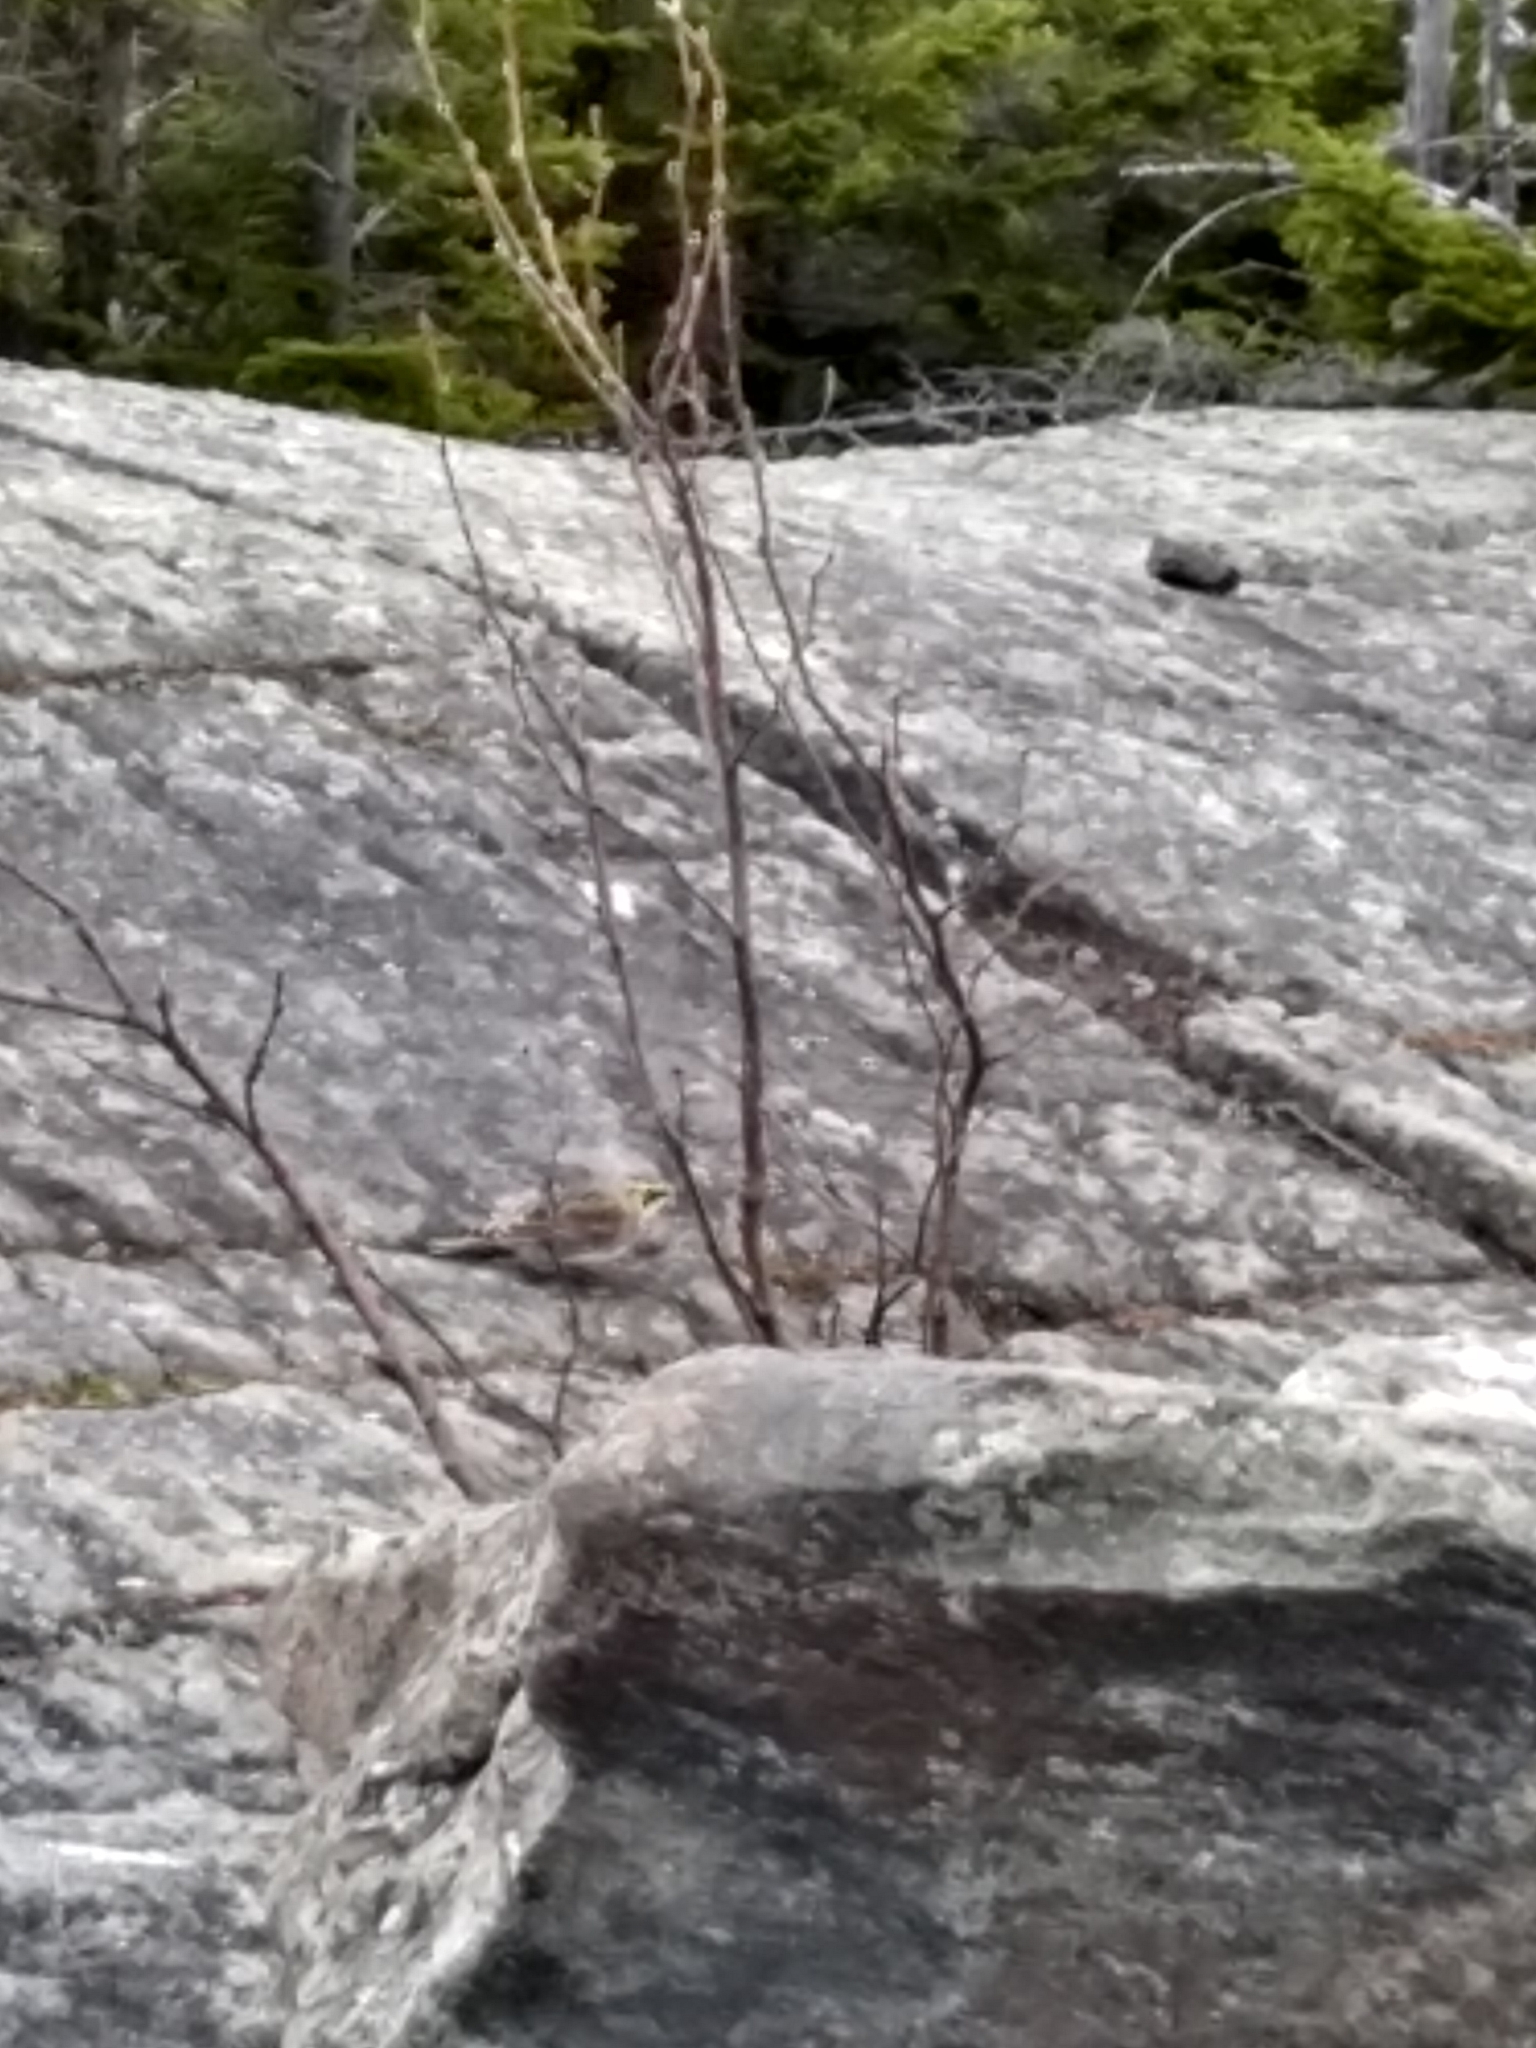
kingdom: Animalia
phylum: Chordata
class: Aves
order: Passeriformes
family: Alaudidae
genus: Eremophila
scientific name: Eremophila alpestris
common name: Horned lark
